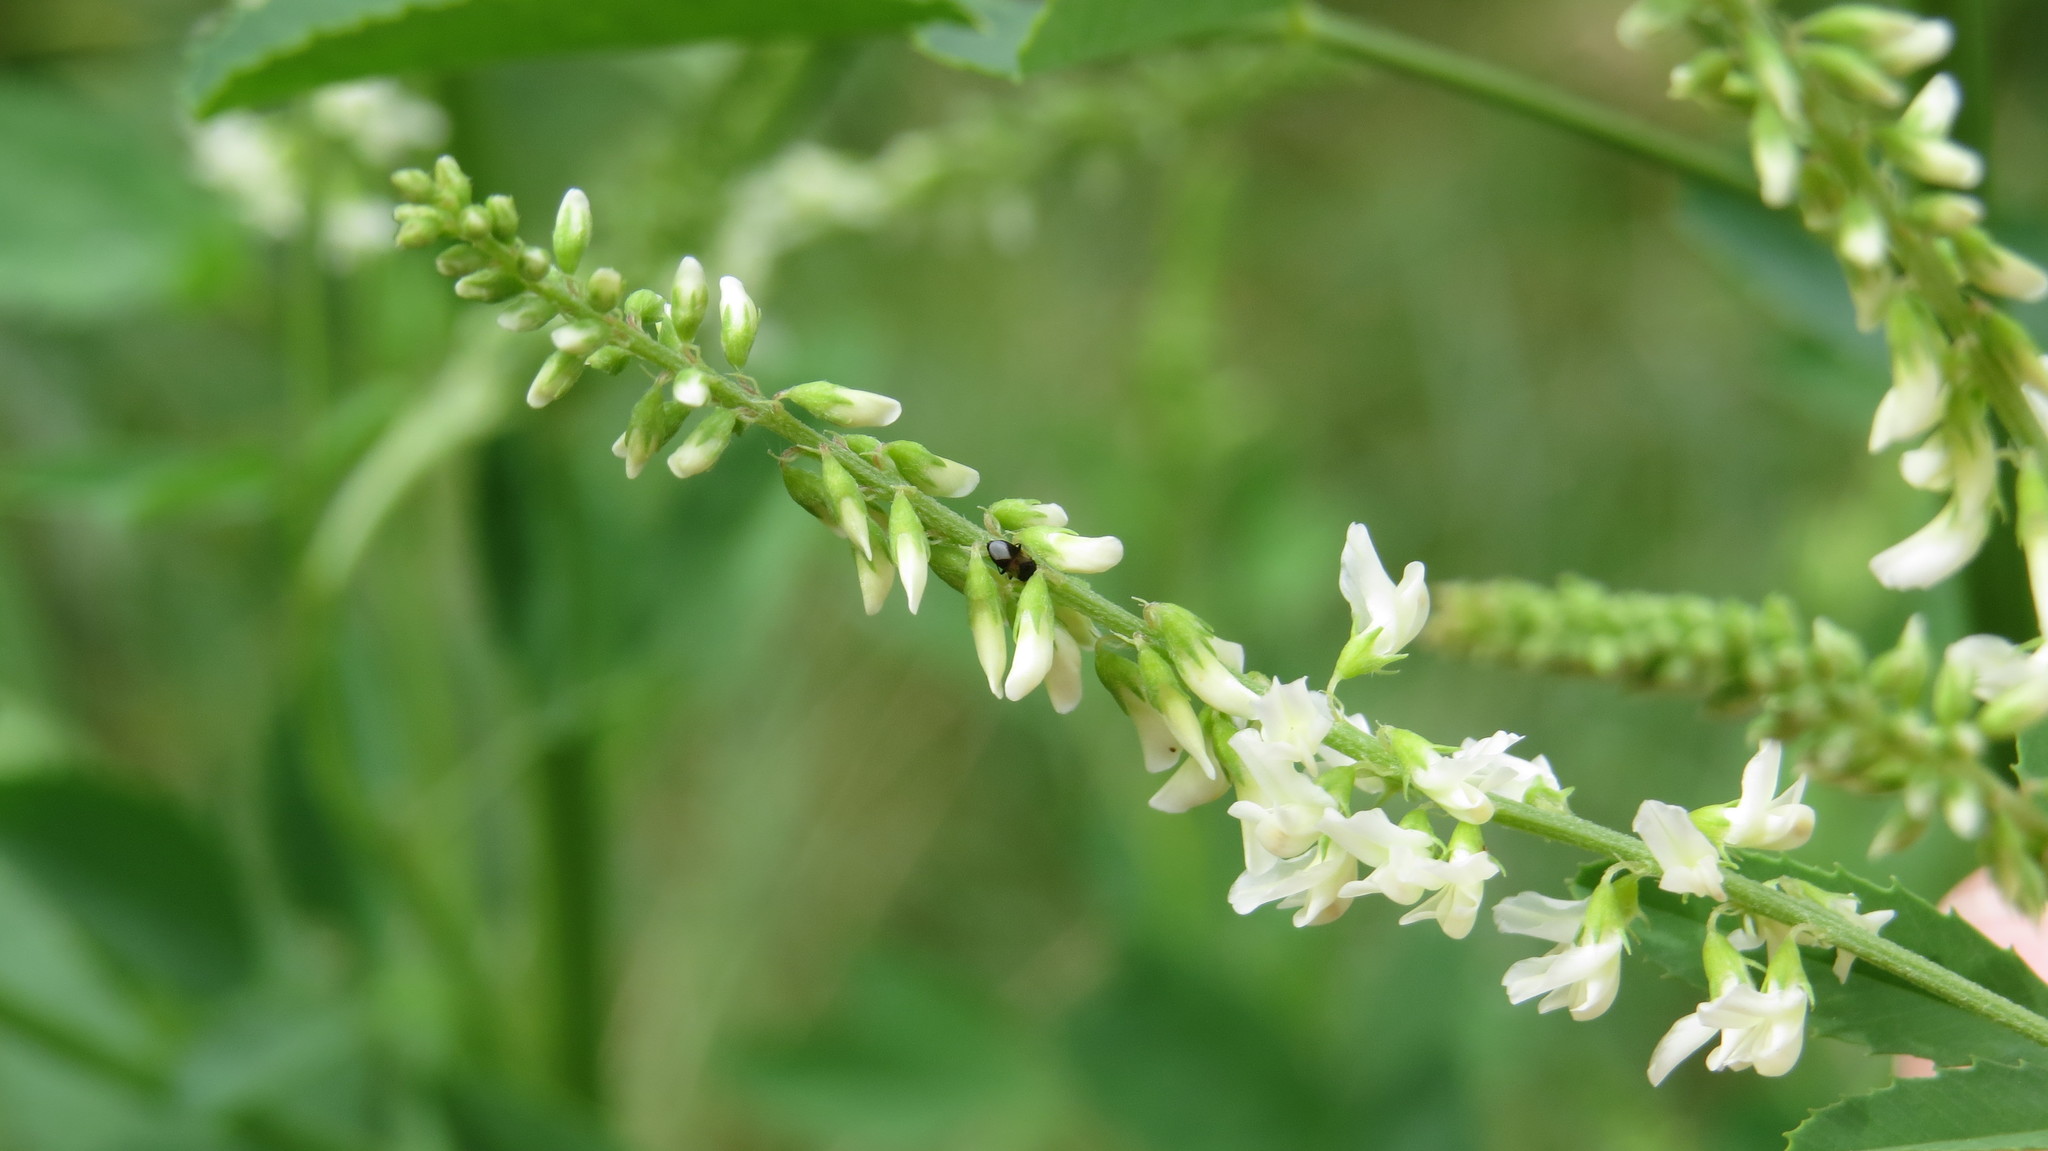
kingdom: Plantae
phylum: Tracheophyta
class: Magnoliopsida
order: Fabales
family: Fabaceae
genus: Melilotus
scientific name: Melilotus albus
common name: White melilot
